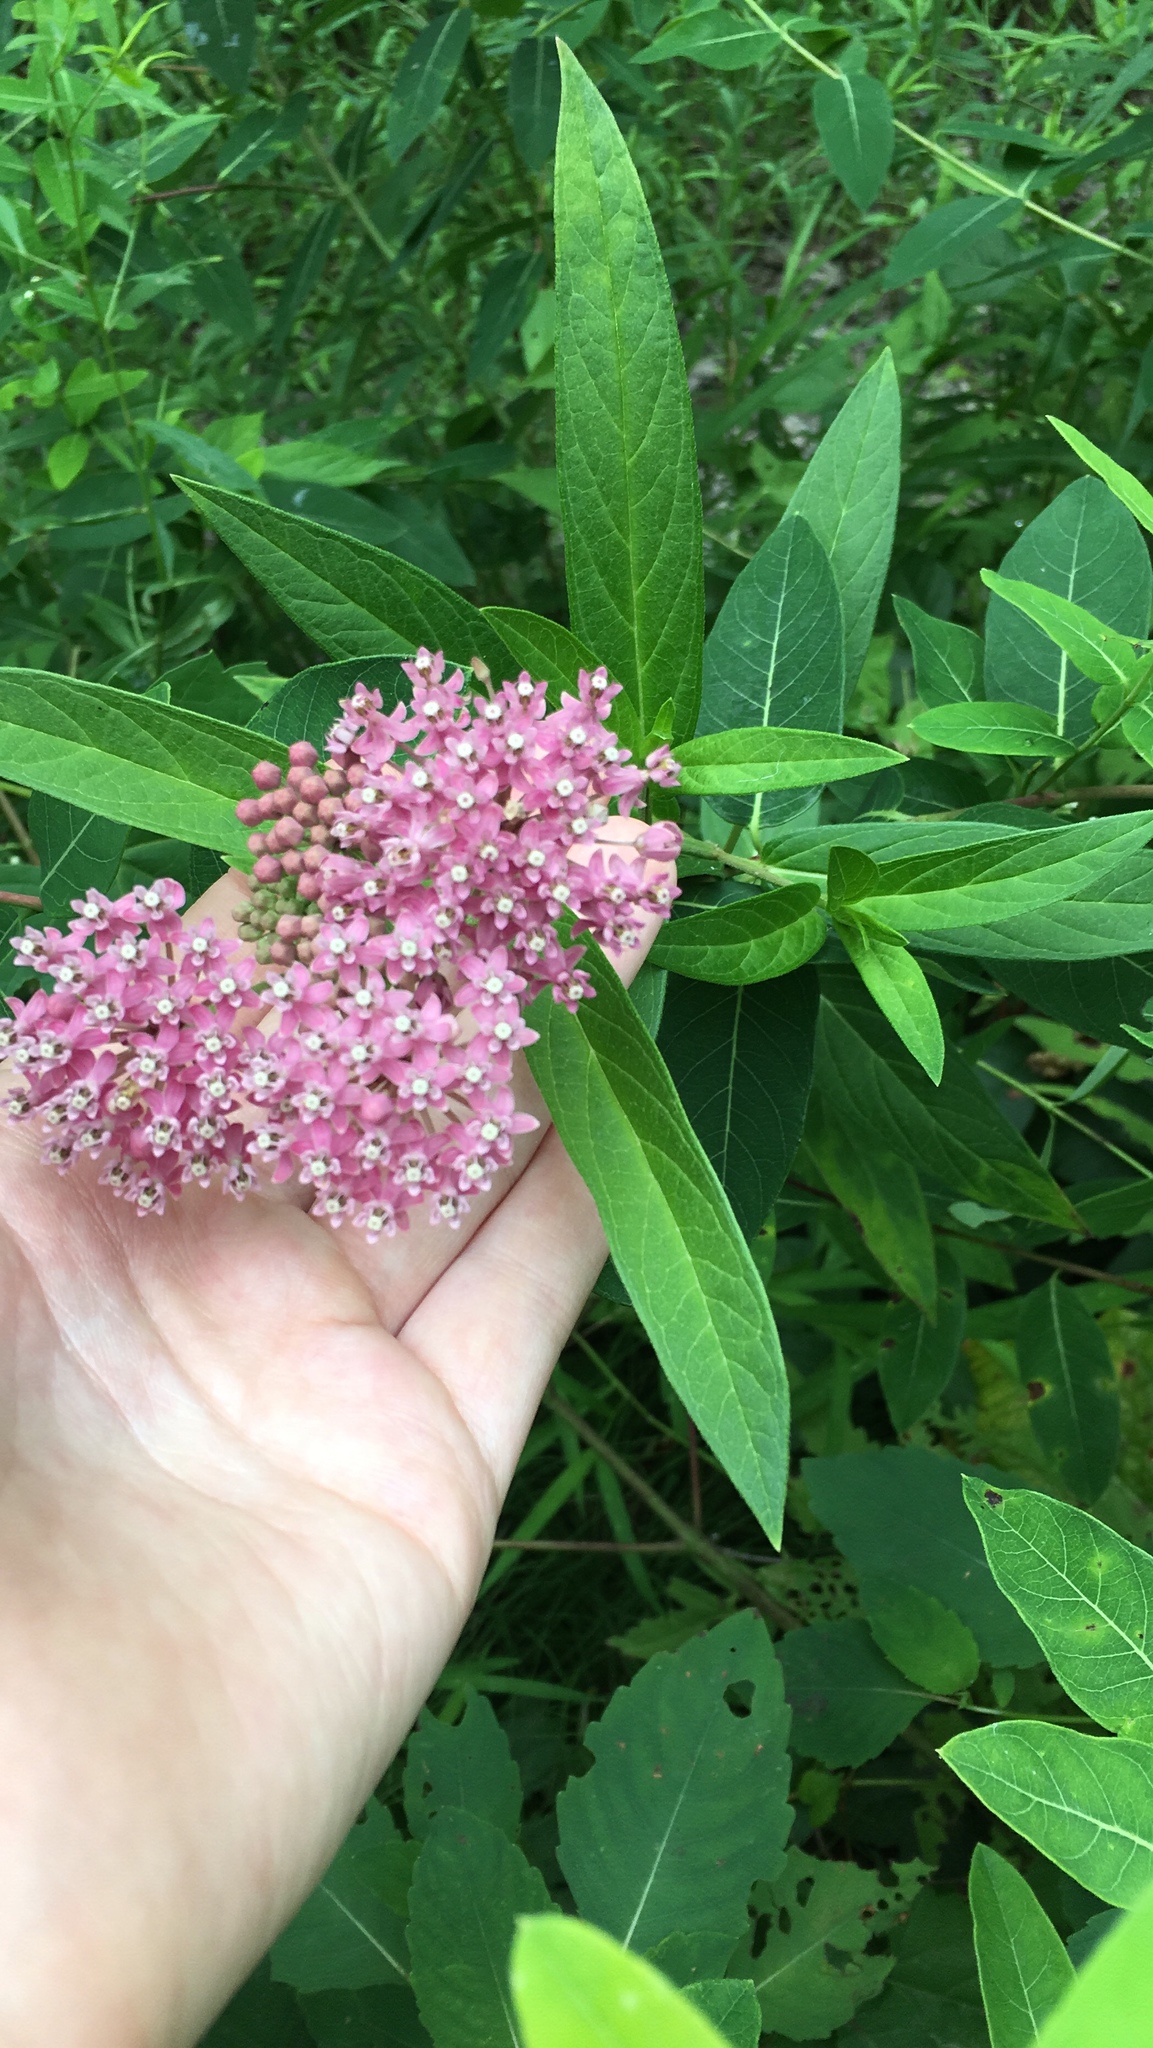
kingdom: Plantae
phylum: Tracheophyta
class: Magnoliopsida
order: Gentianales
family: Apocynaceae
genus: Asclepias
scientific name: Asclepias incarnata
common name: Swamp milkweed
